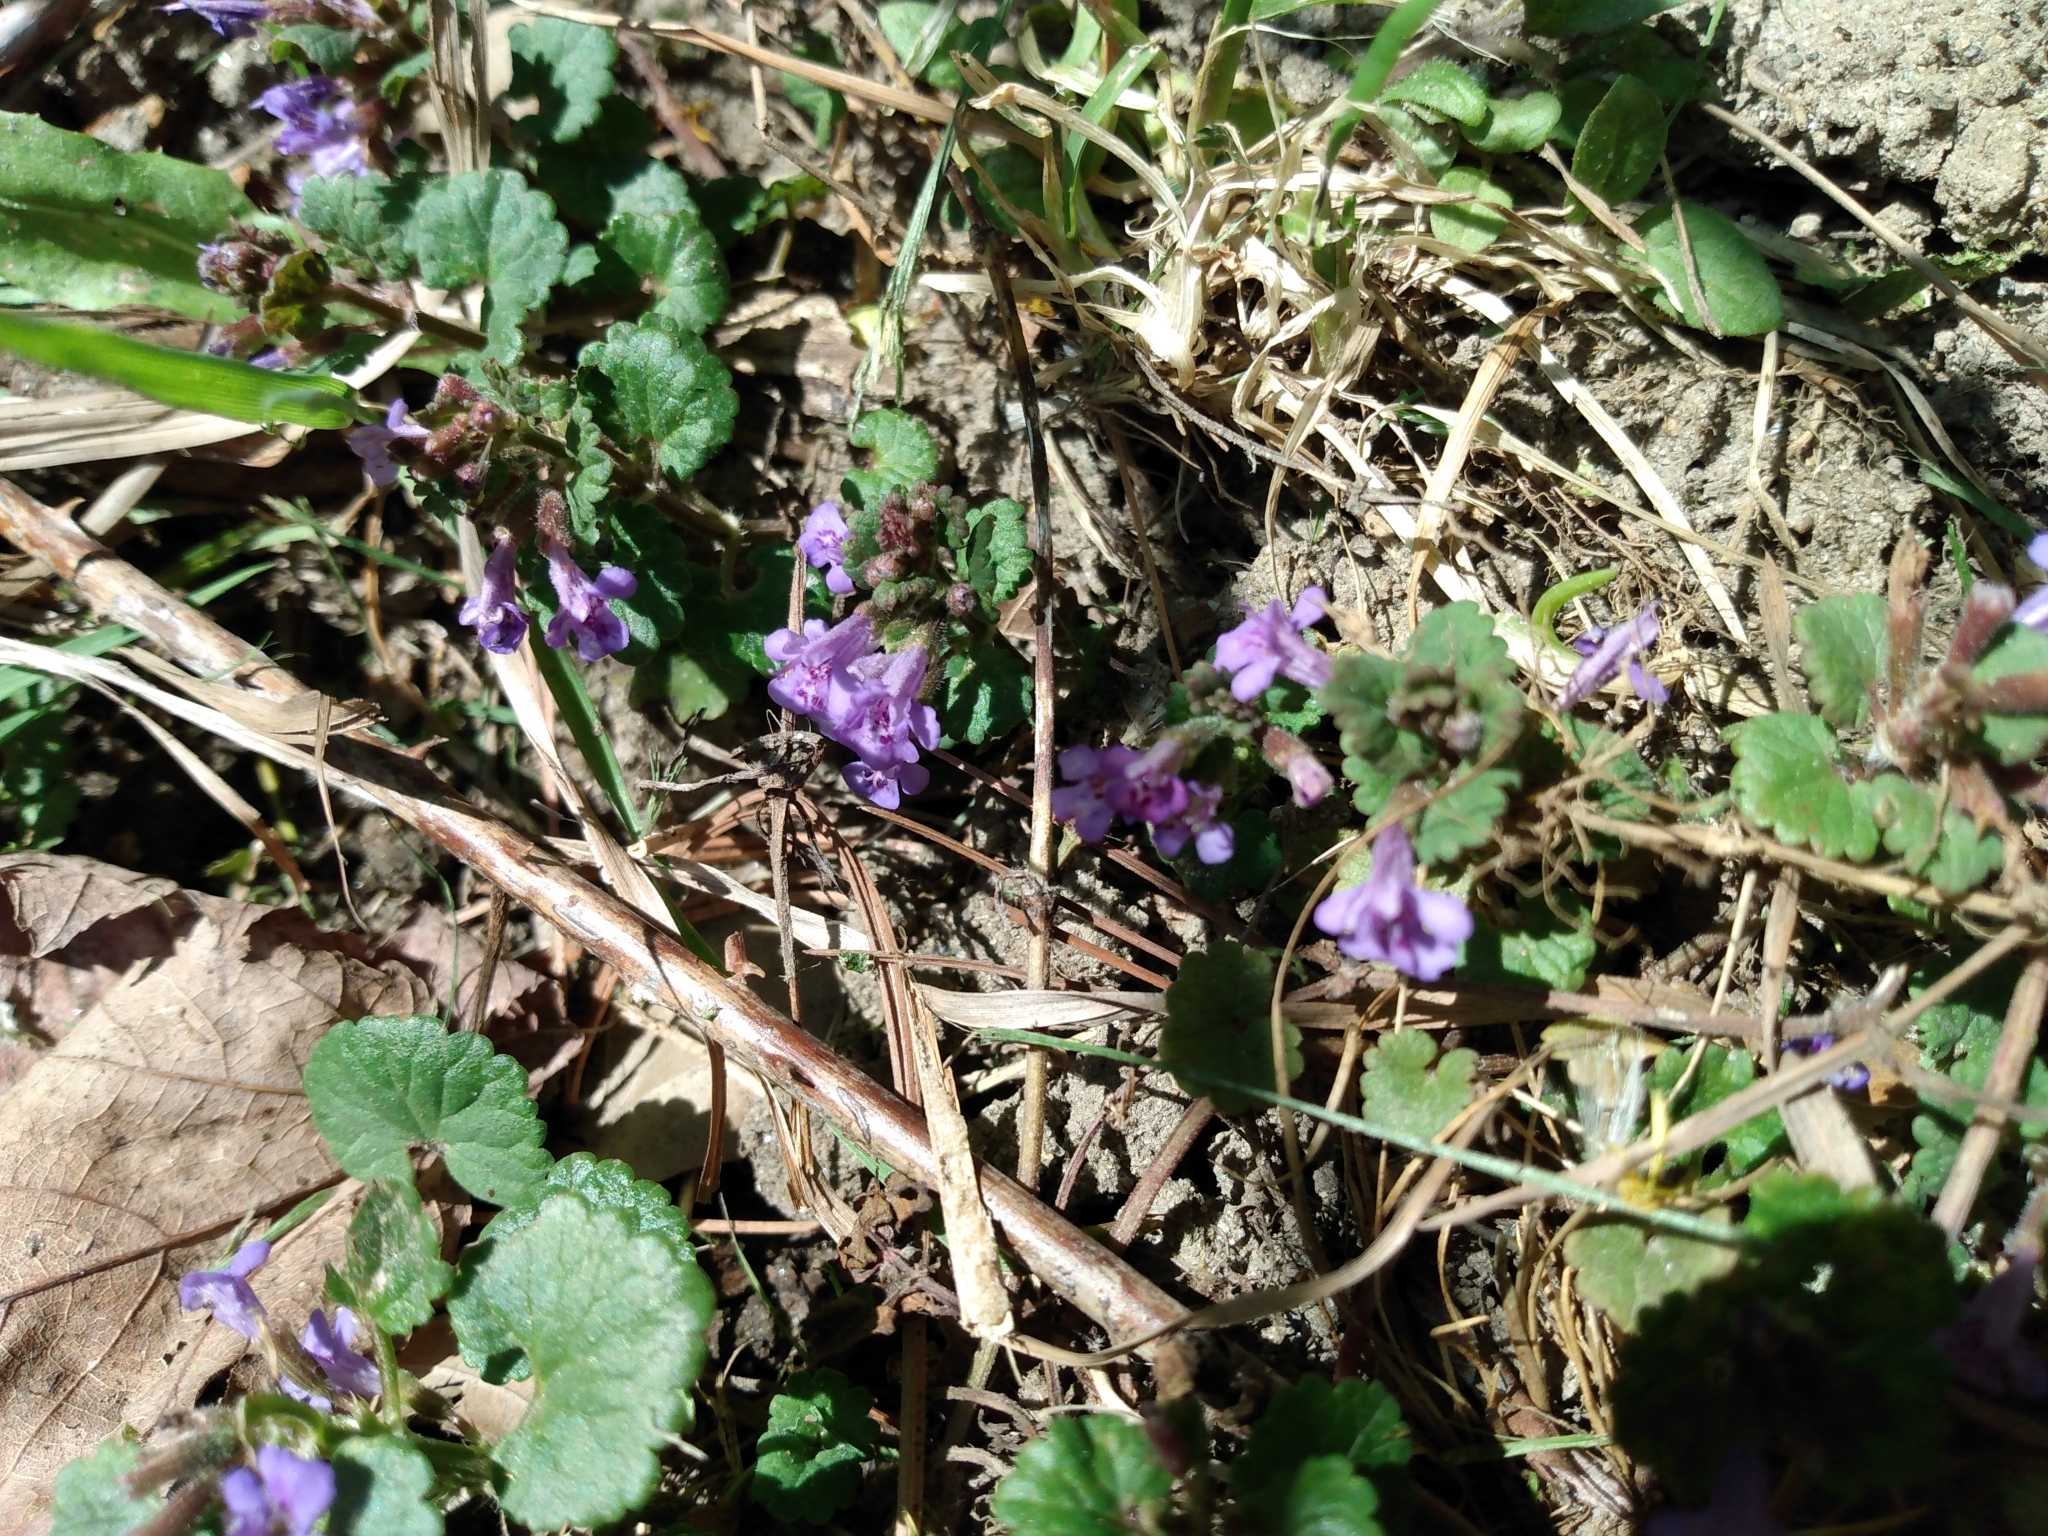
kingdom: Plantae
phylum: Tracheophyta
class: Magnoliopsida
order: Lamiales
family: Lamiaceae
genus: Glechoma
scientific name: Glechoma hederacea
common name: Ground ivy
